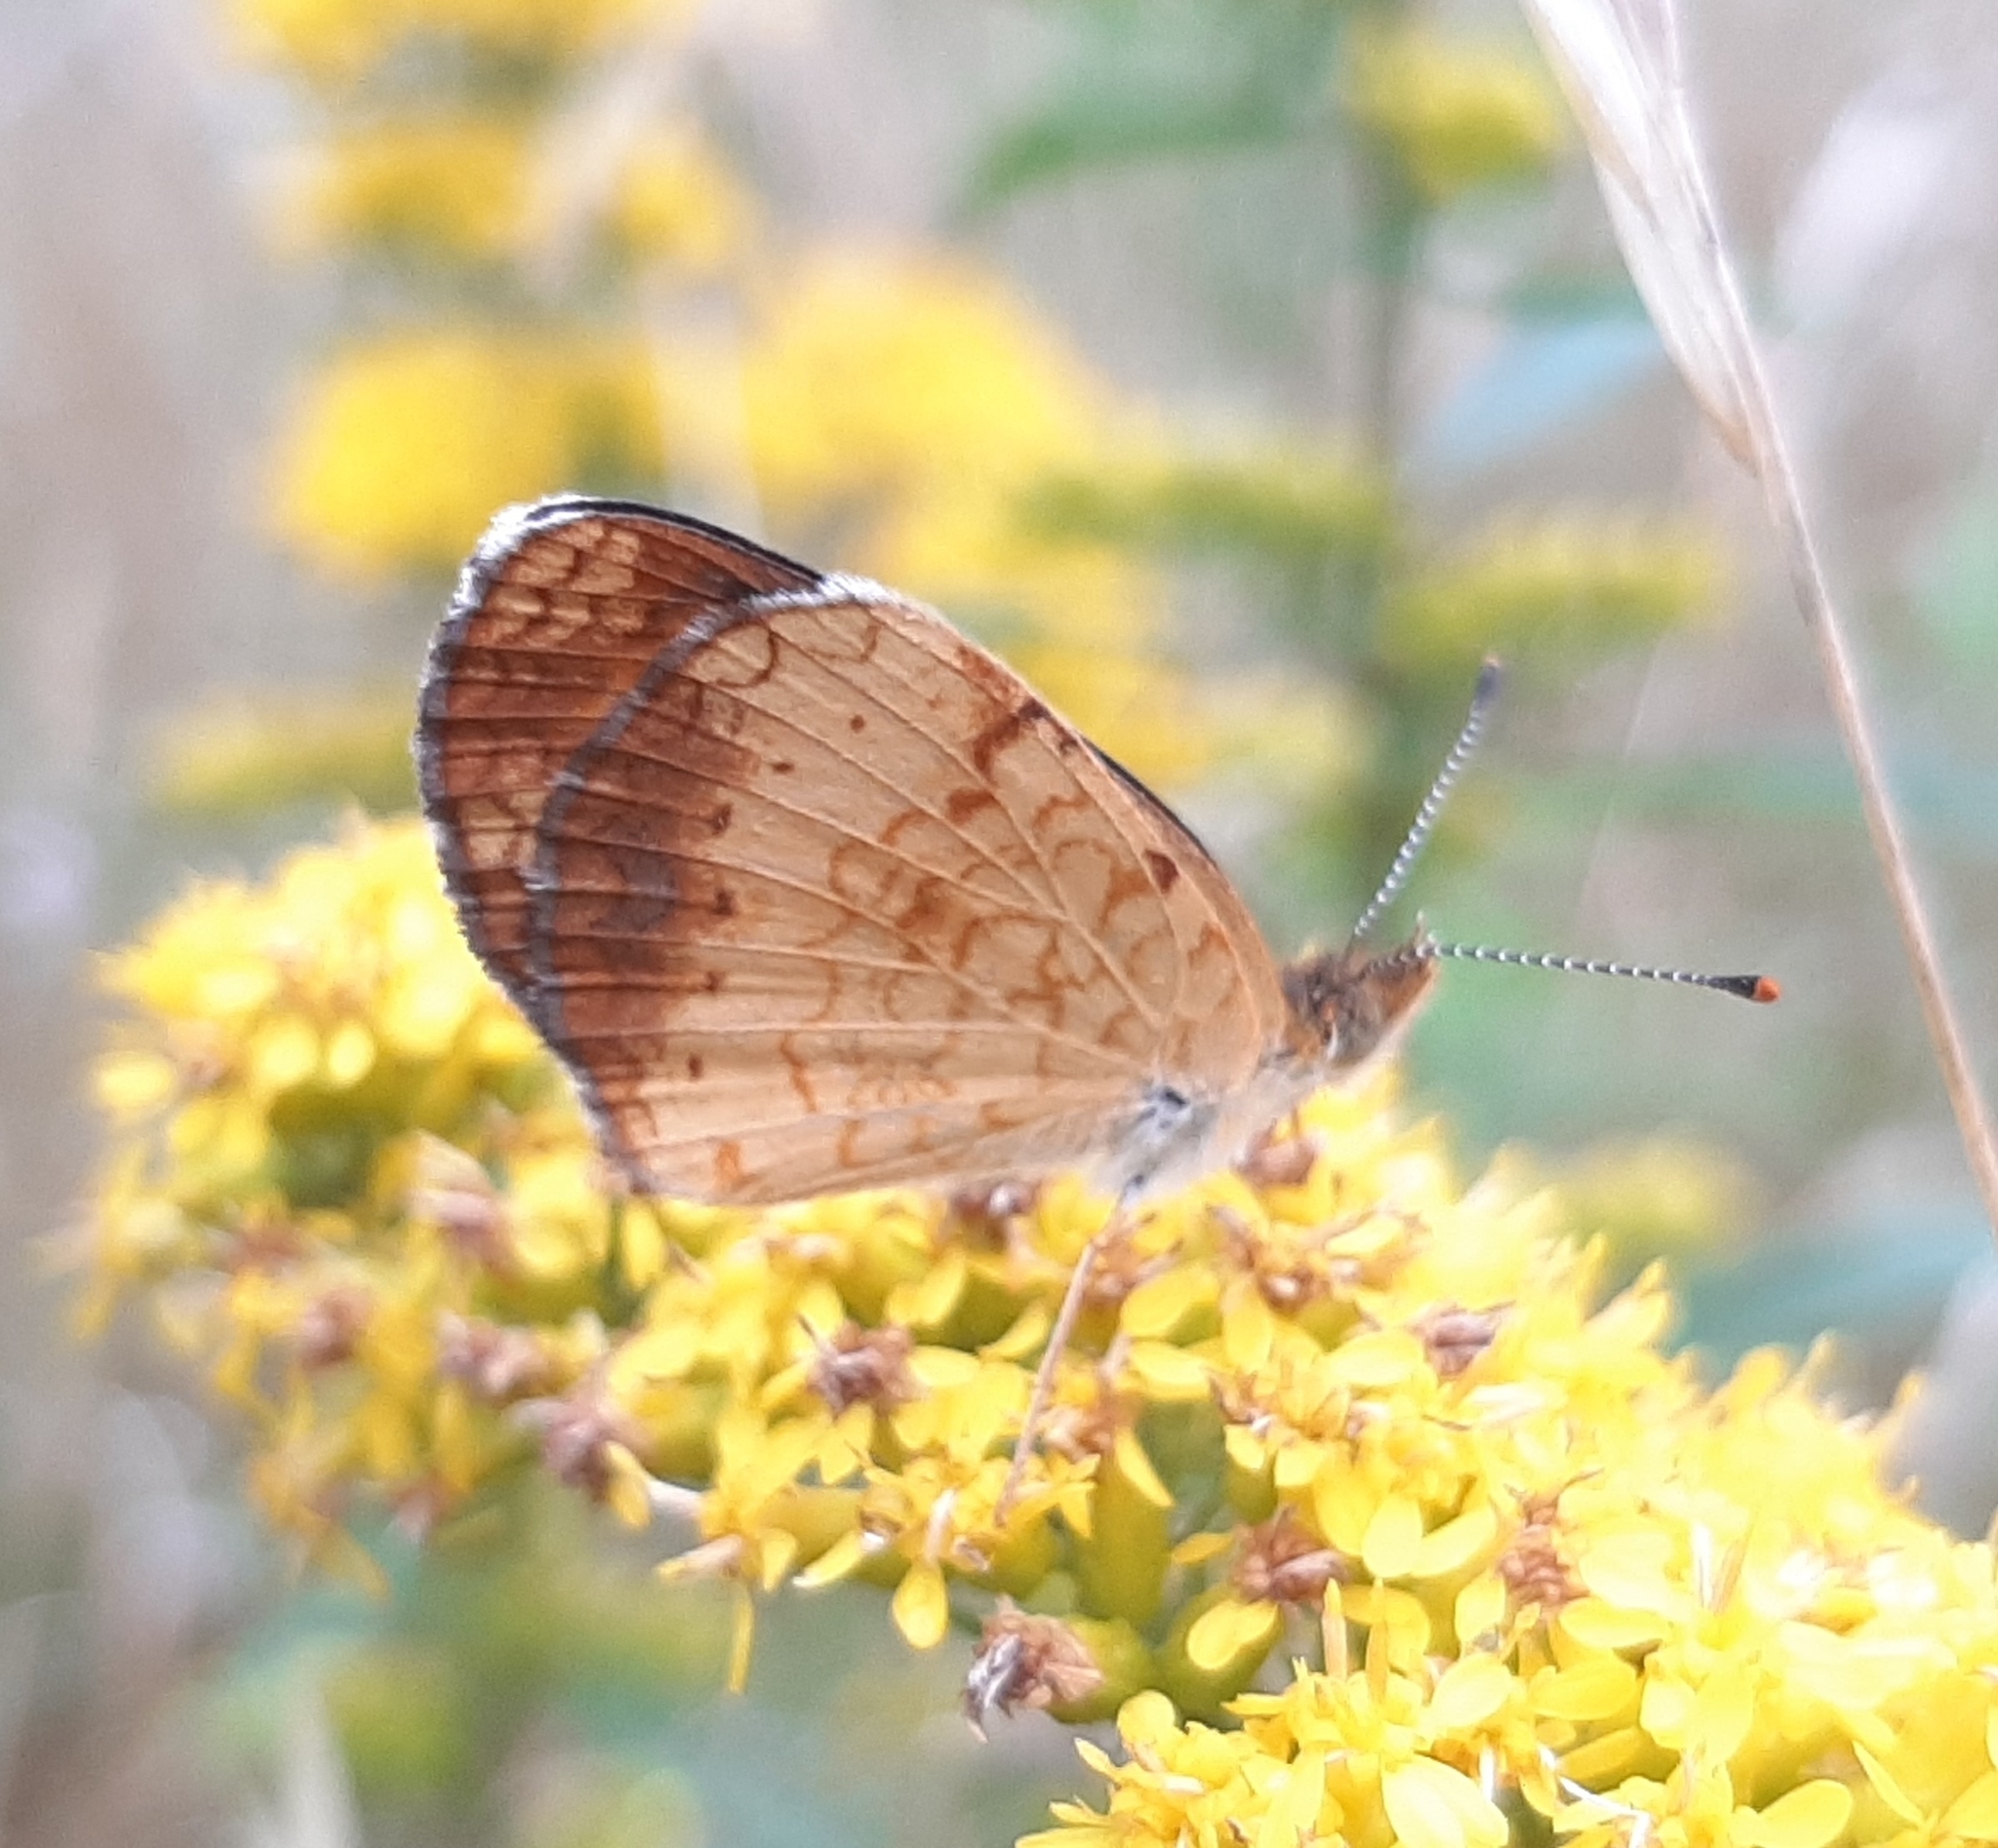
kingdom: Animalia
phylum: Arthropoda
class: Insecta
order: Lepidoptera
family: Nymphalidae
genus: Phyciodes
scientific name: Phyciodes tharos
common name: Pearl crescent
